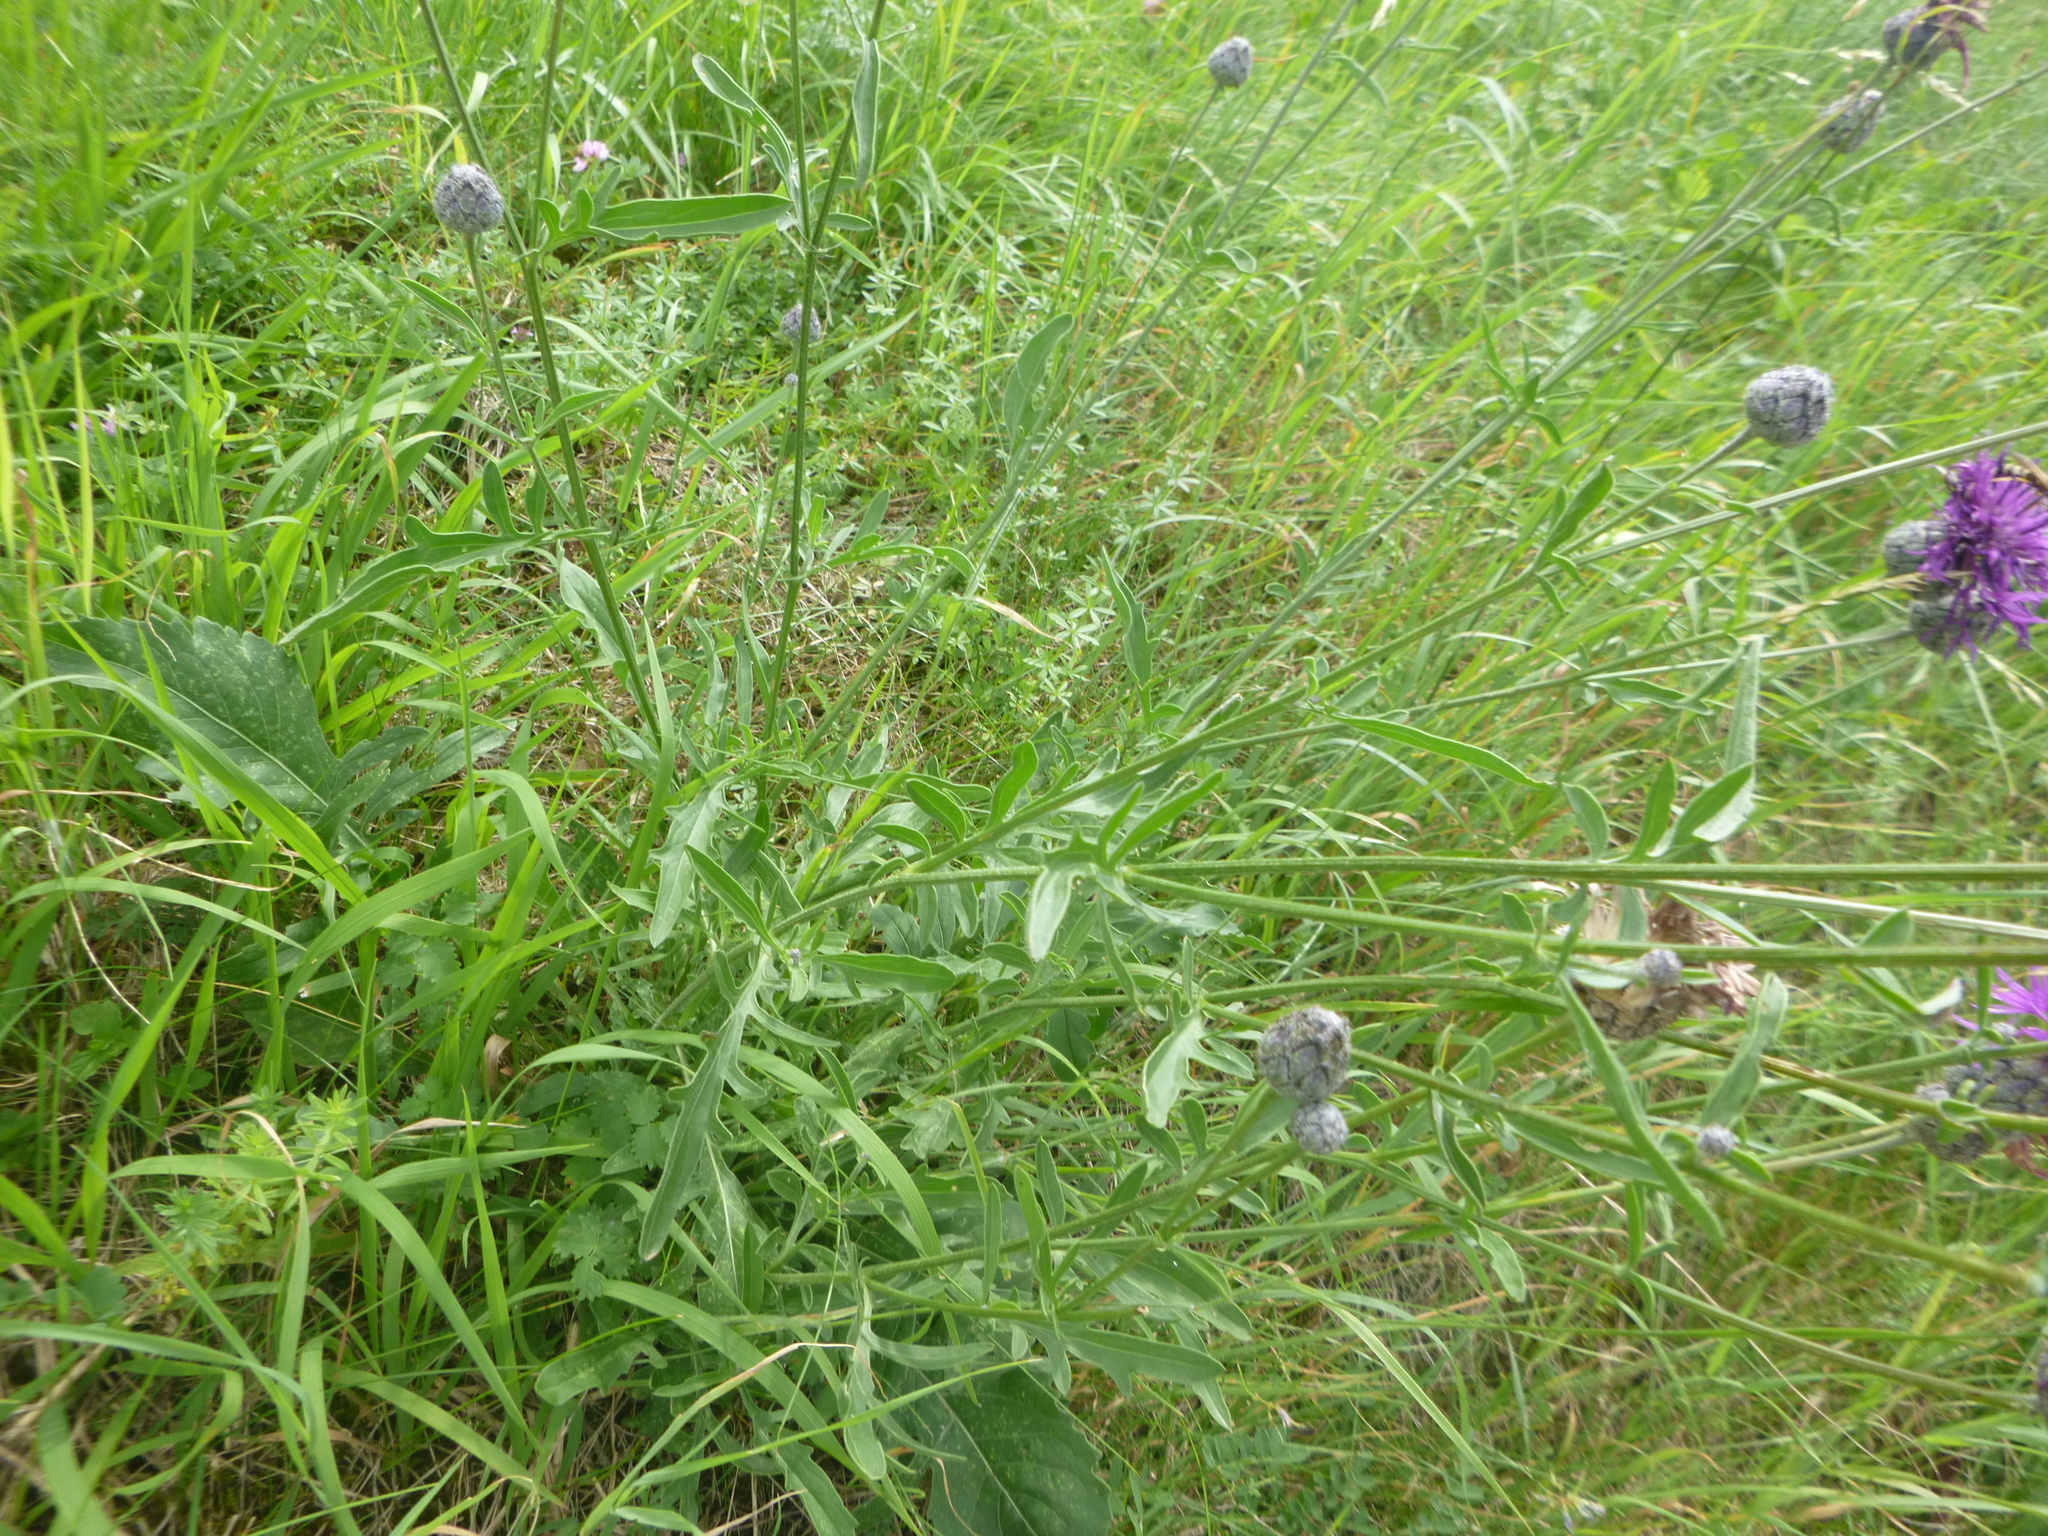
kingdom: Plantae
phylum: Tracheophyta
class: Magnoliopsida
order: Asterales
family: Asteraceae
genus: Centaurea
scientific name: Centaurea scabiosa
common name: Greater knapweed
